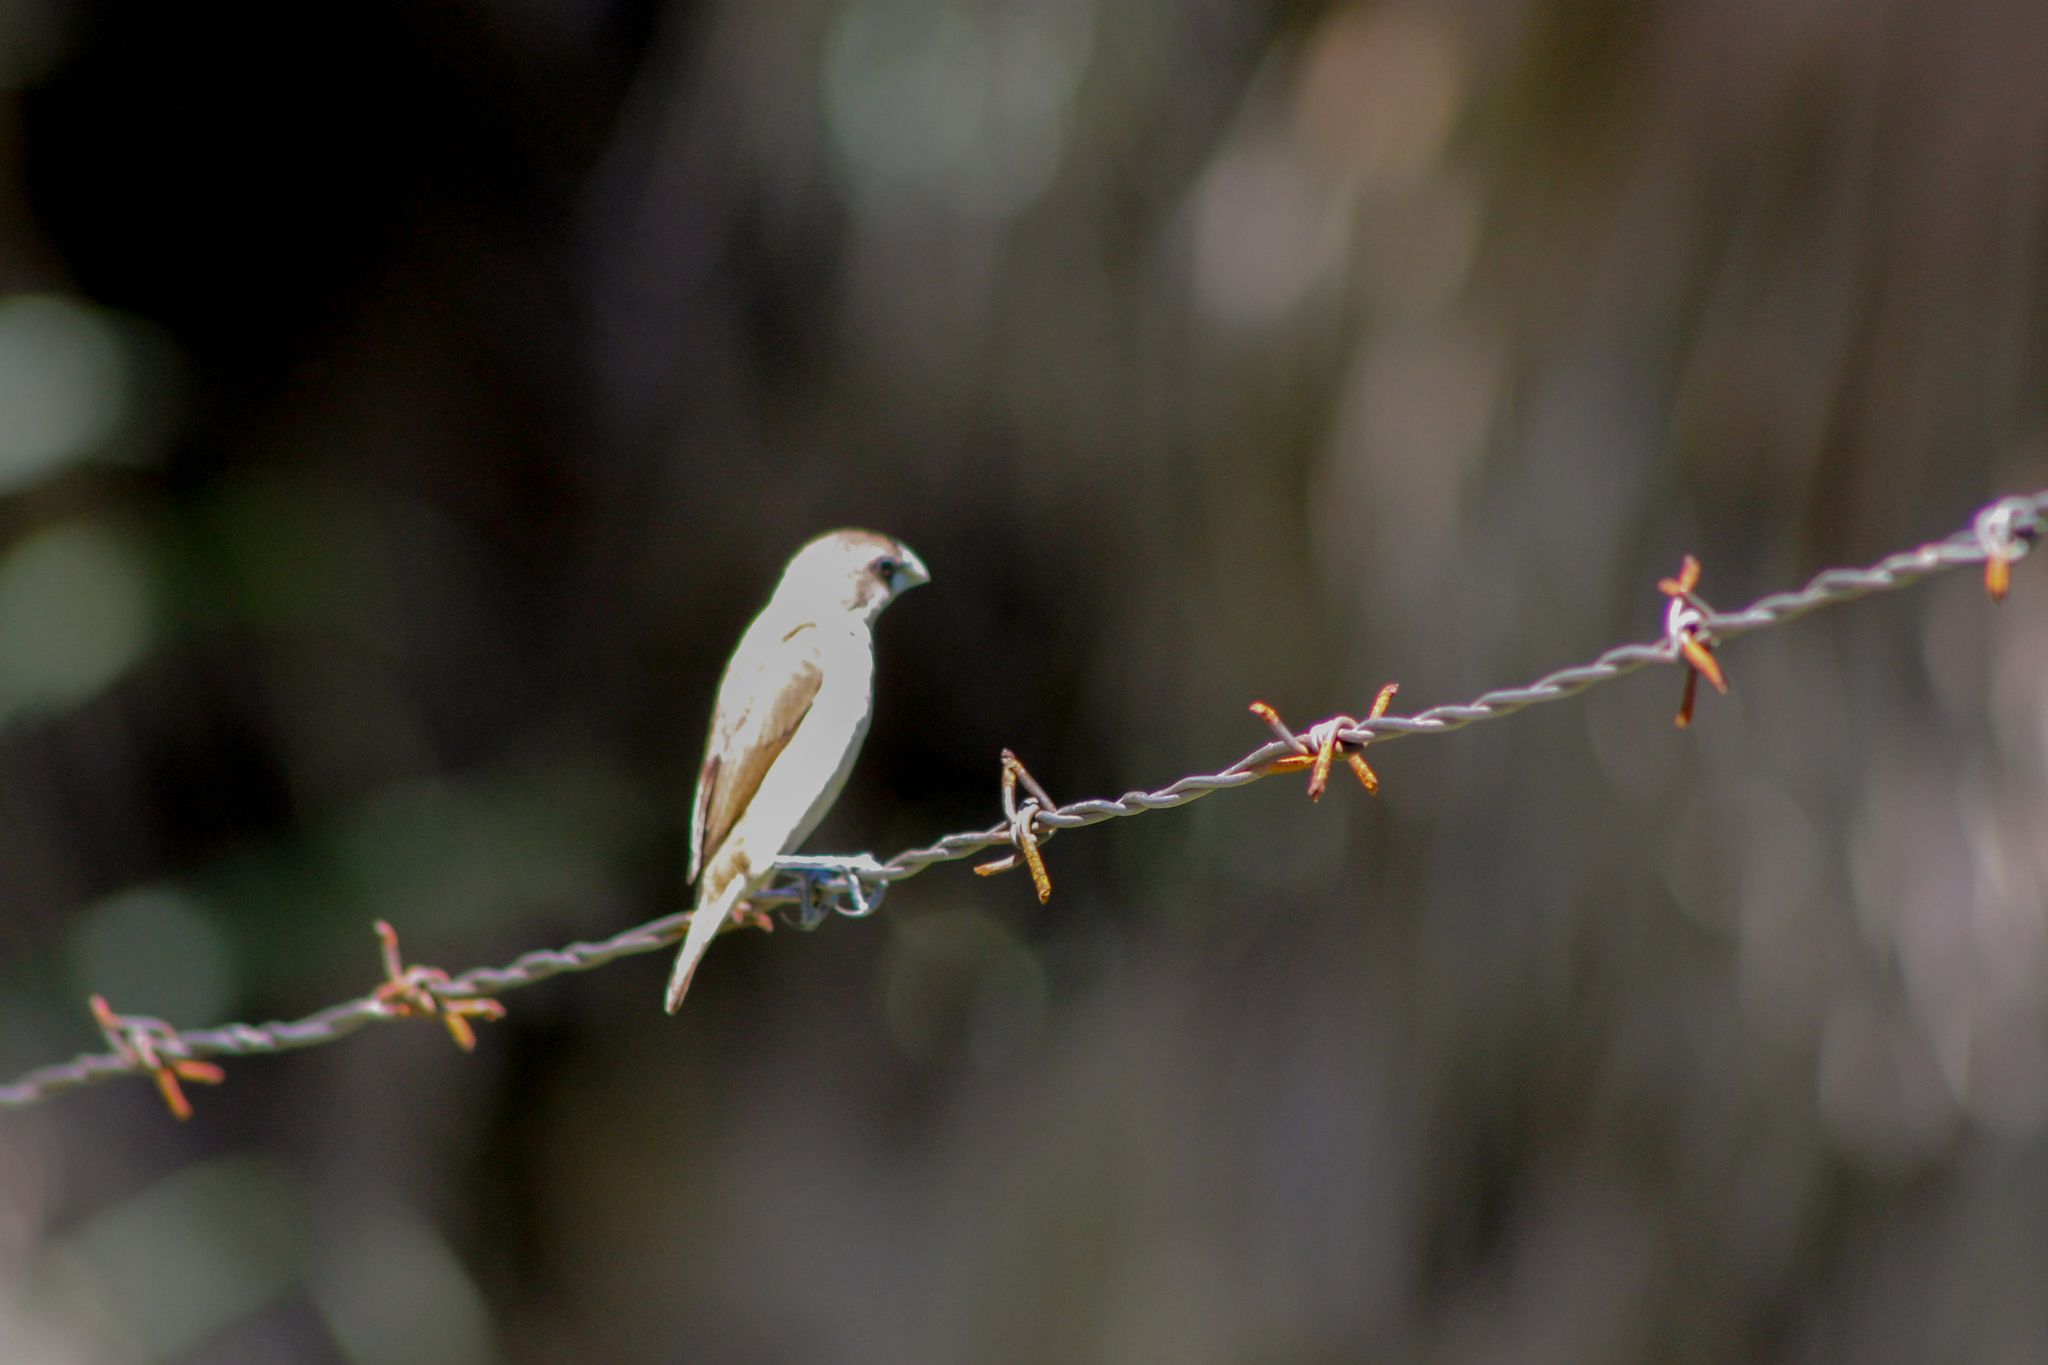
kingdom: Animalia
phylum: Chordata
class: Aves
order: Passeriformes
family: Estrildidae
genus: Lonchura
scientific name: Lonchura malacca
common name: Tricolored munia
